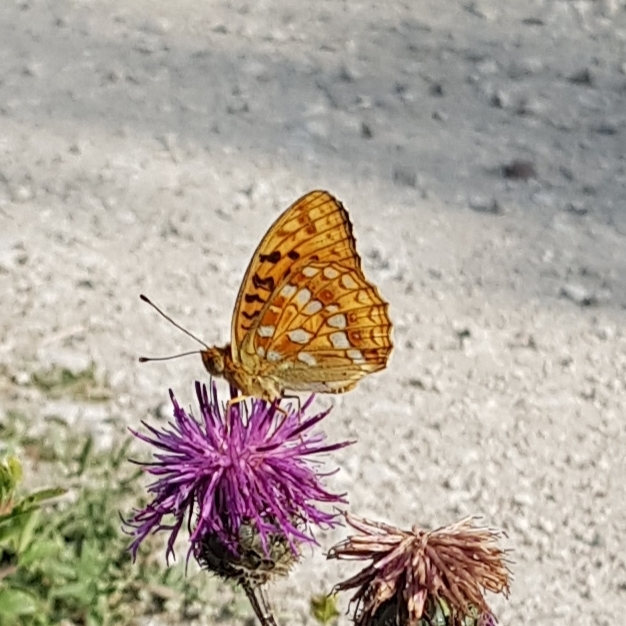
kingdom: Animalia
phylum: Arthropoda
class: Insecta
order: Lepidoptera
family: Nymphalidae
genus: Fabriciana
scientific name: Fabriciana adippe
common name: High brown fritillary
